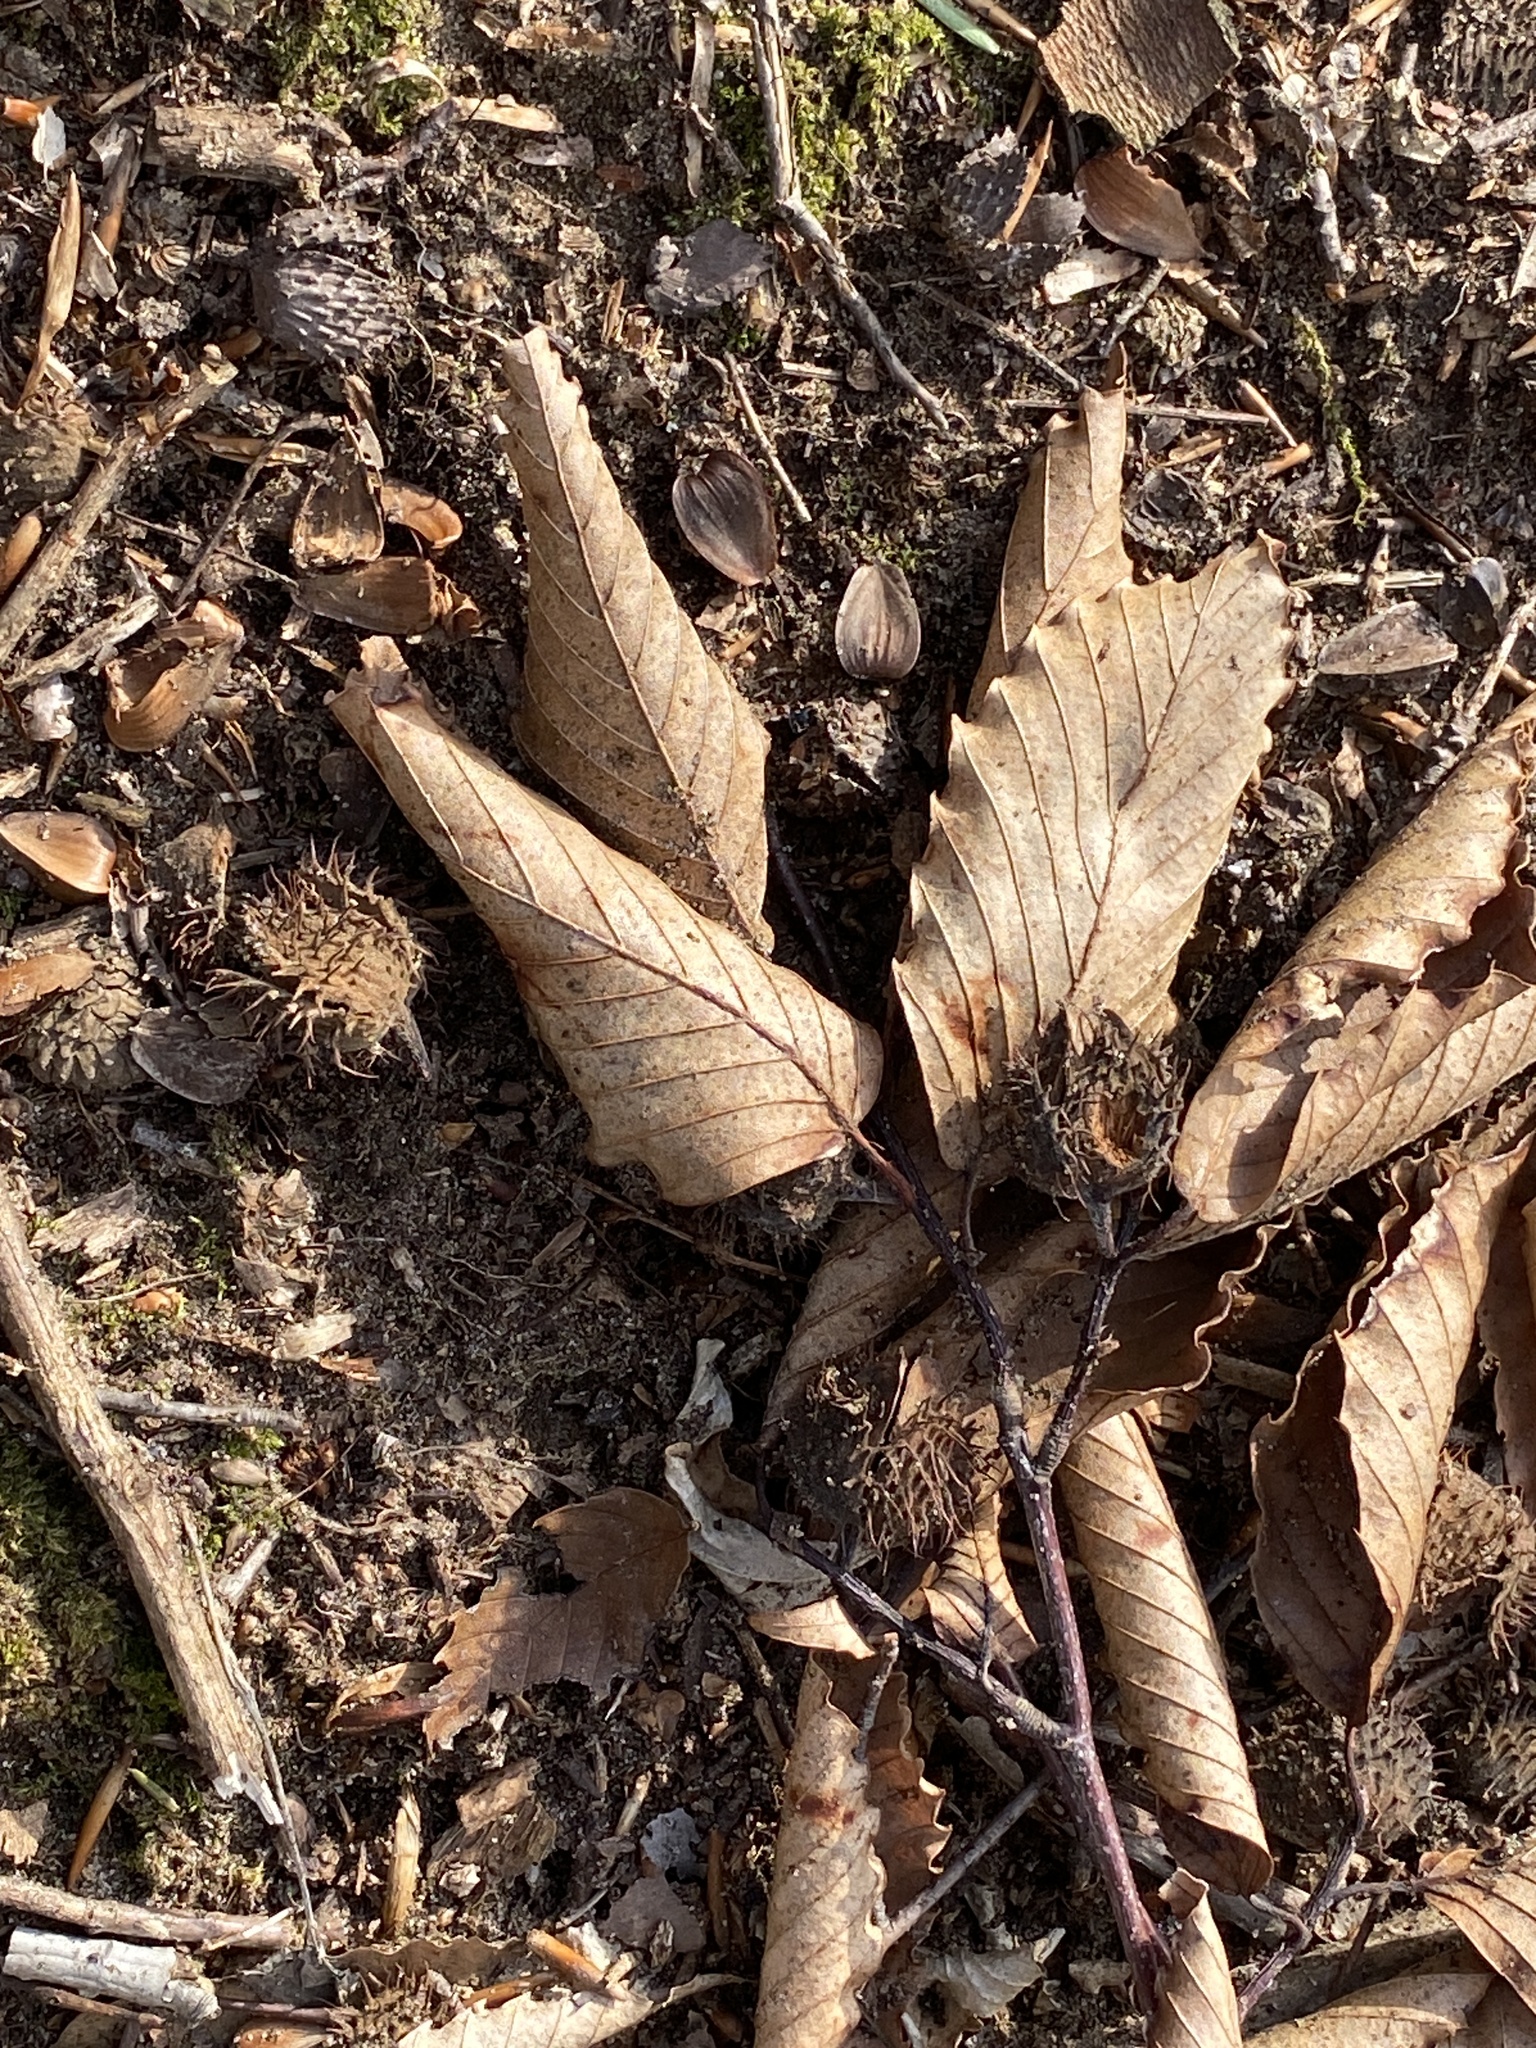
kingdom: Plantae
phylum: Tracheophyta
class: Magnoliopsida
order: Fagales
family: Fagaceae
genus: Fagus
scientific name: Fagus grandifolia
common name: American beech
